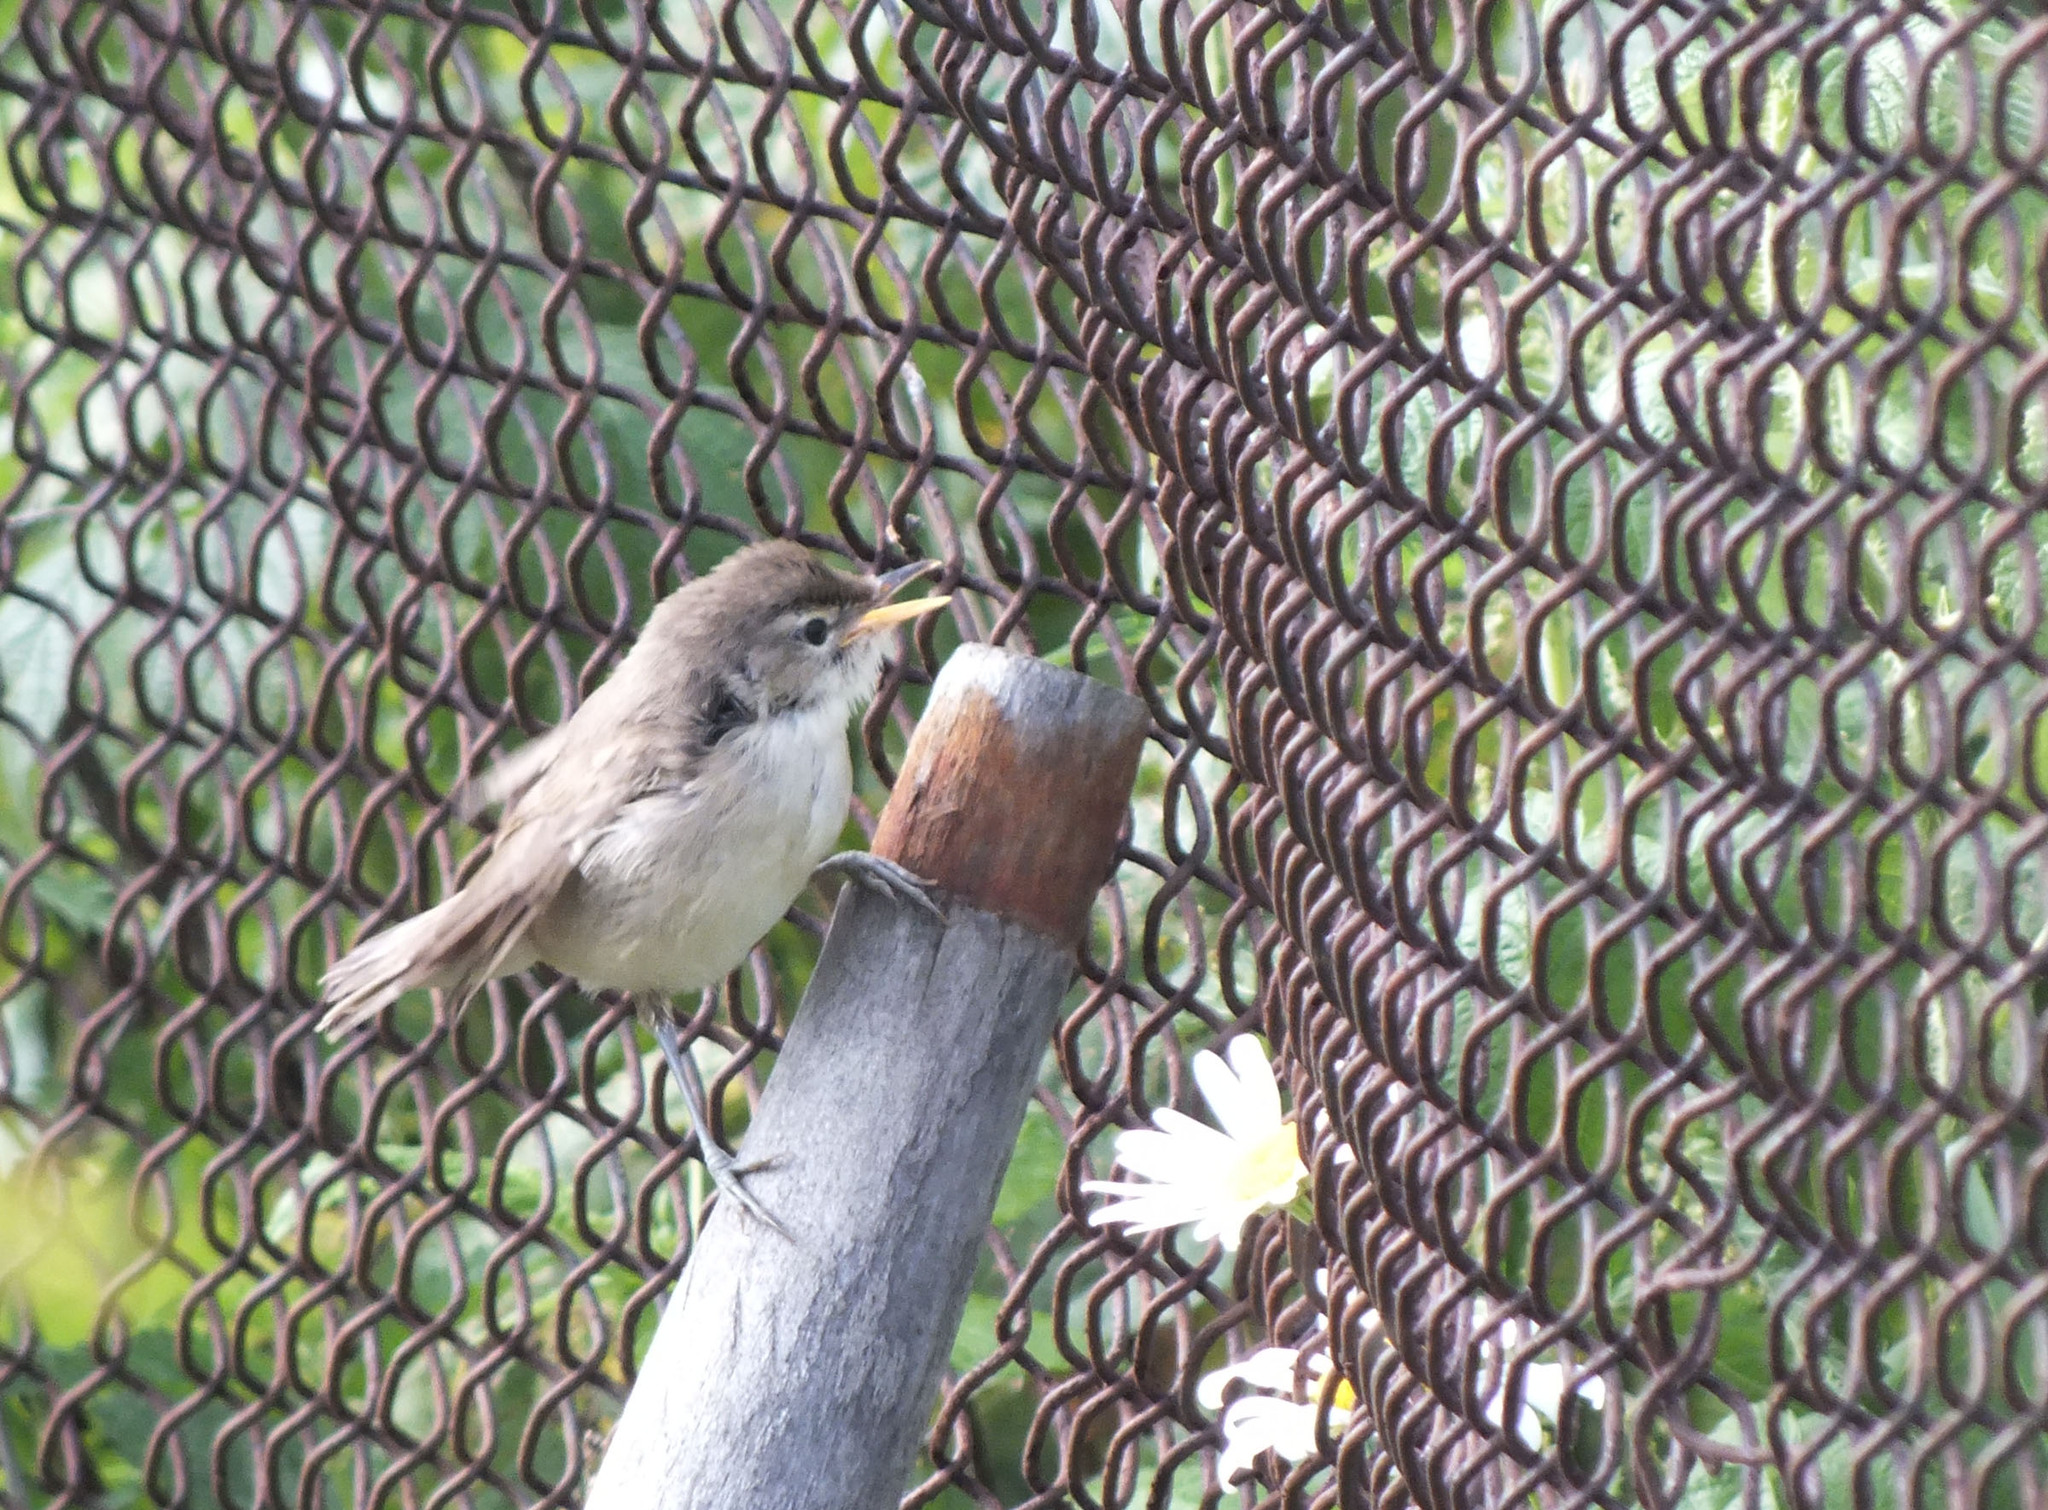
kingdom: Animalia
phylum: Chordata
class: Aves
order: Passeriformes
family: Acrocephalidae
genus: Acrocephalus
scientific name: Acrocephalus dumetorum
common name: Blyth's reed warbler
